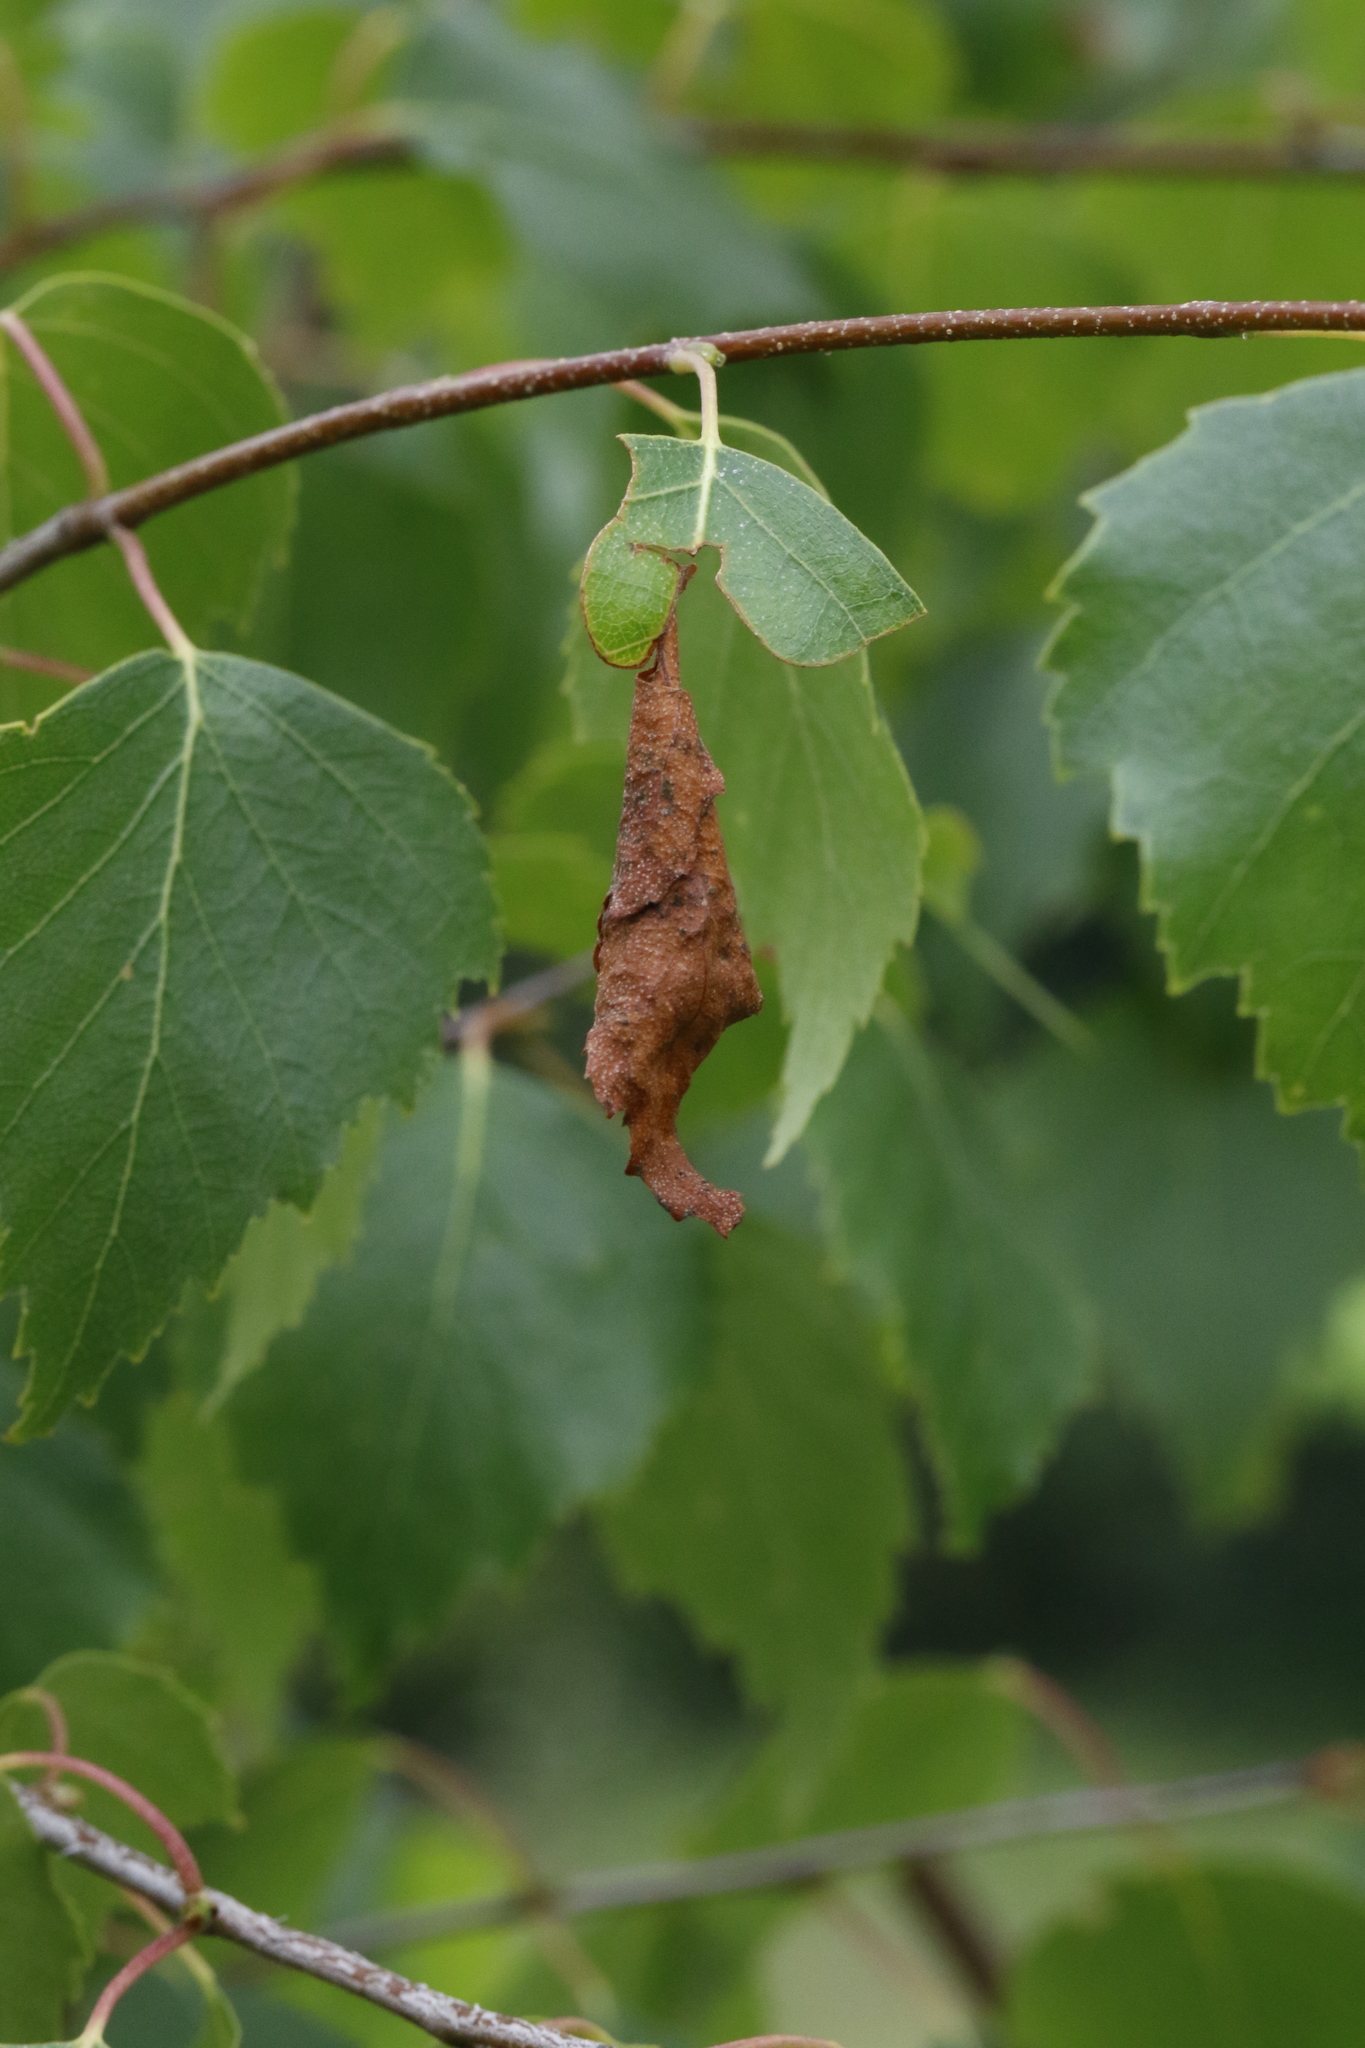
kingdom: Animalia
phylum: Arthropoda
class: Insecta
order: Coleoptera
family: Attelabidae
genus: Deporaus
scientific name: Deporaus betulae
